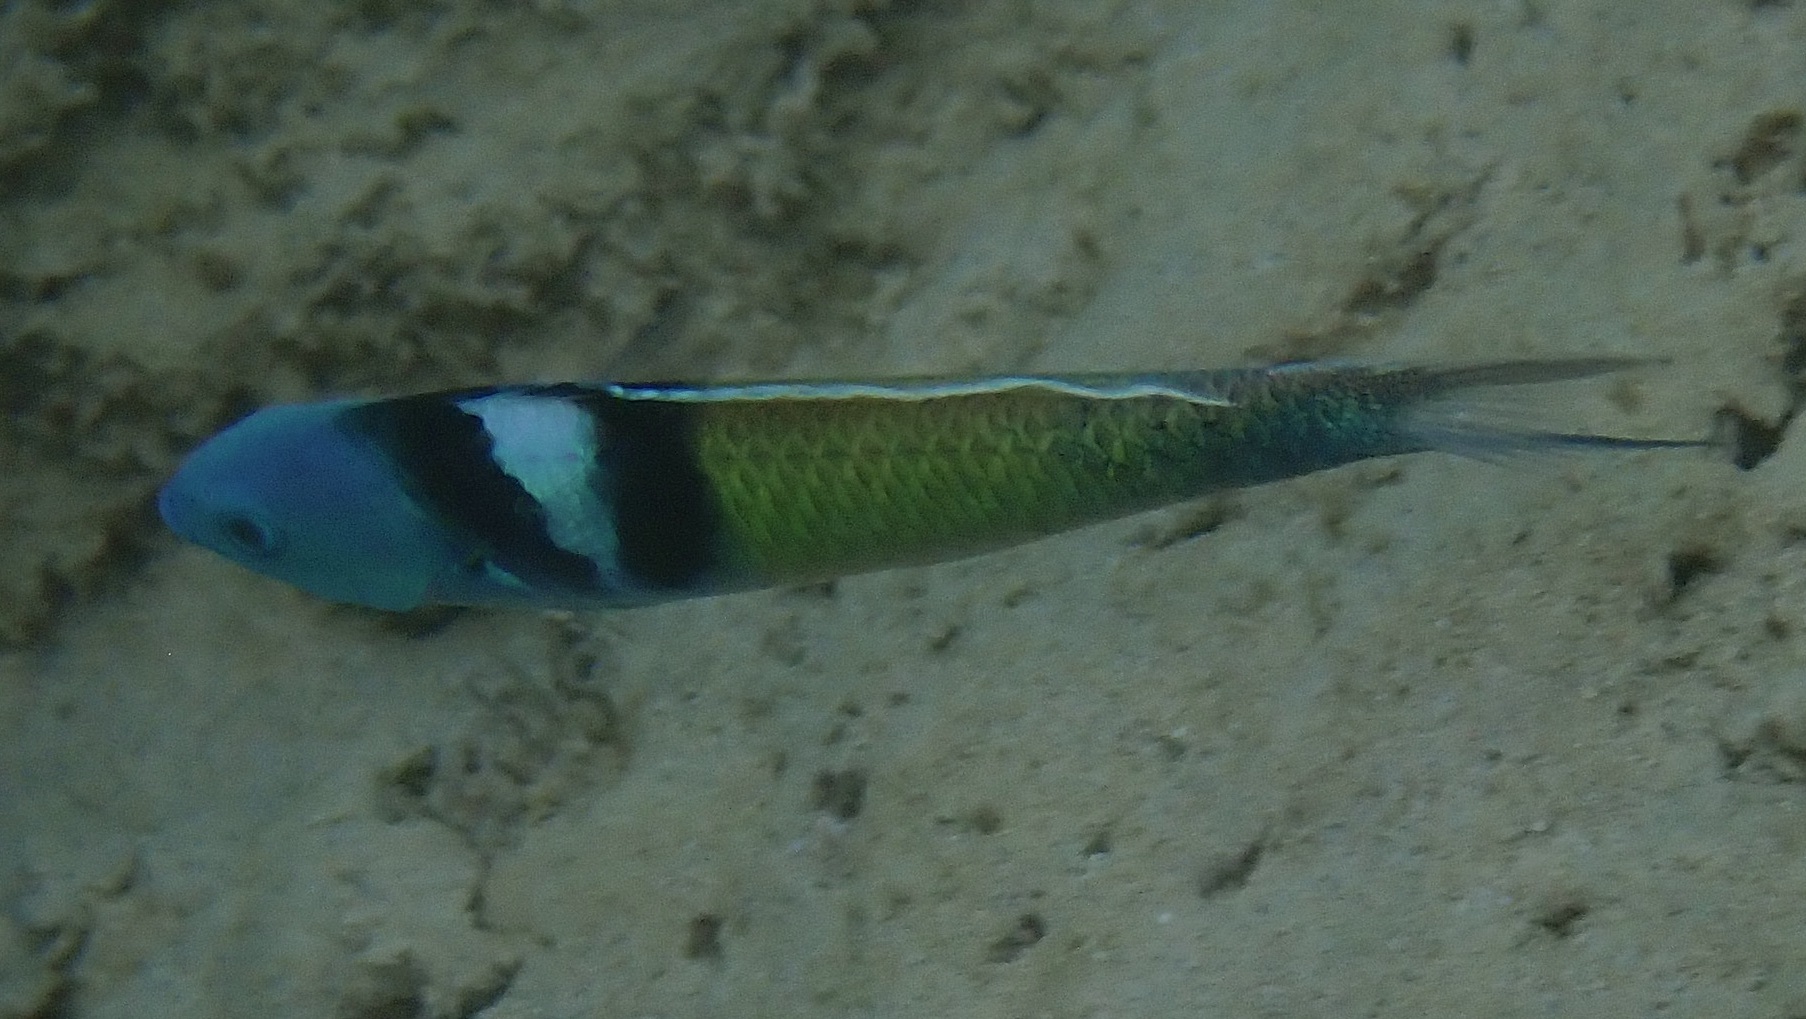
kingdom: Animalia
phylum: Chordata
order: Perciformes
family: Labridae
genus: Thalassoma
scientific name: Thalassoma bifasciatum
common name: Bluehead wrasse
